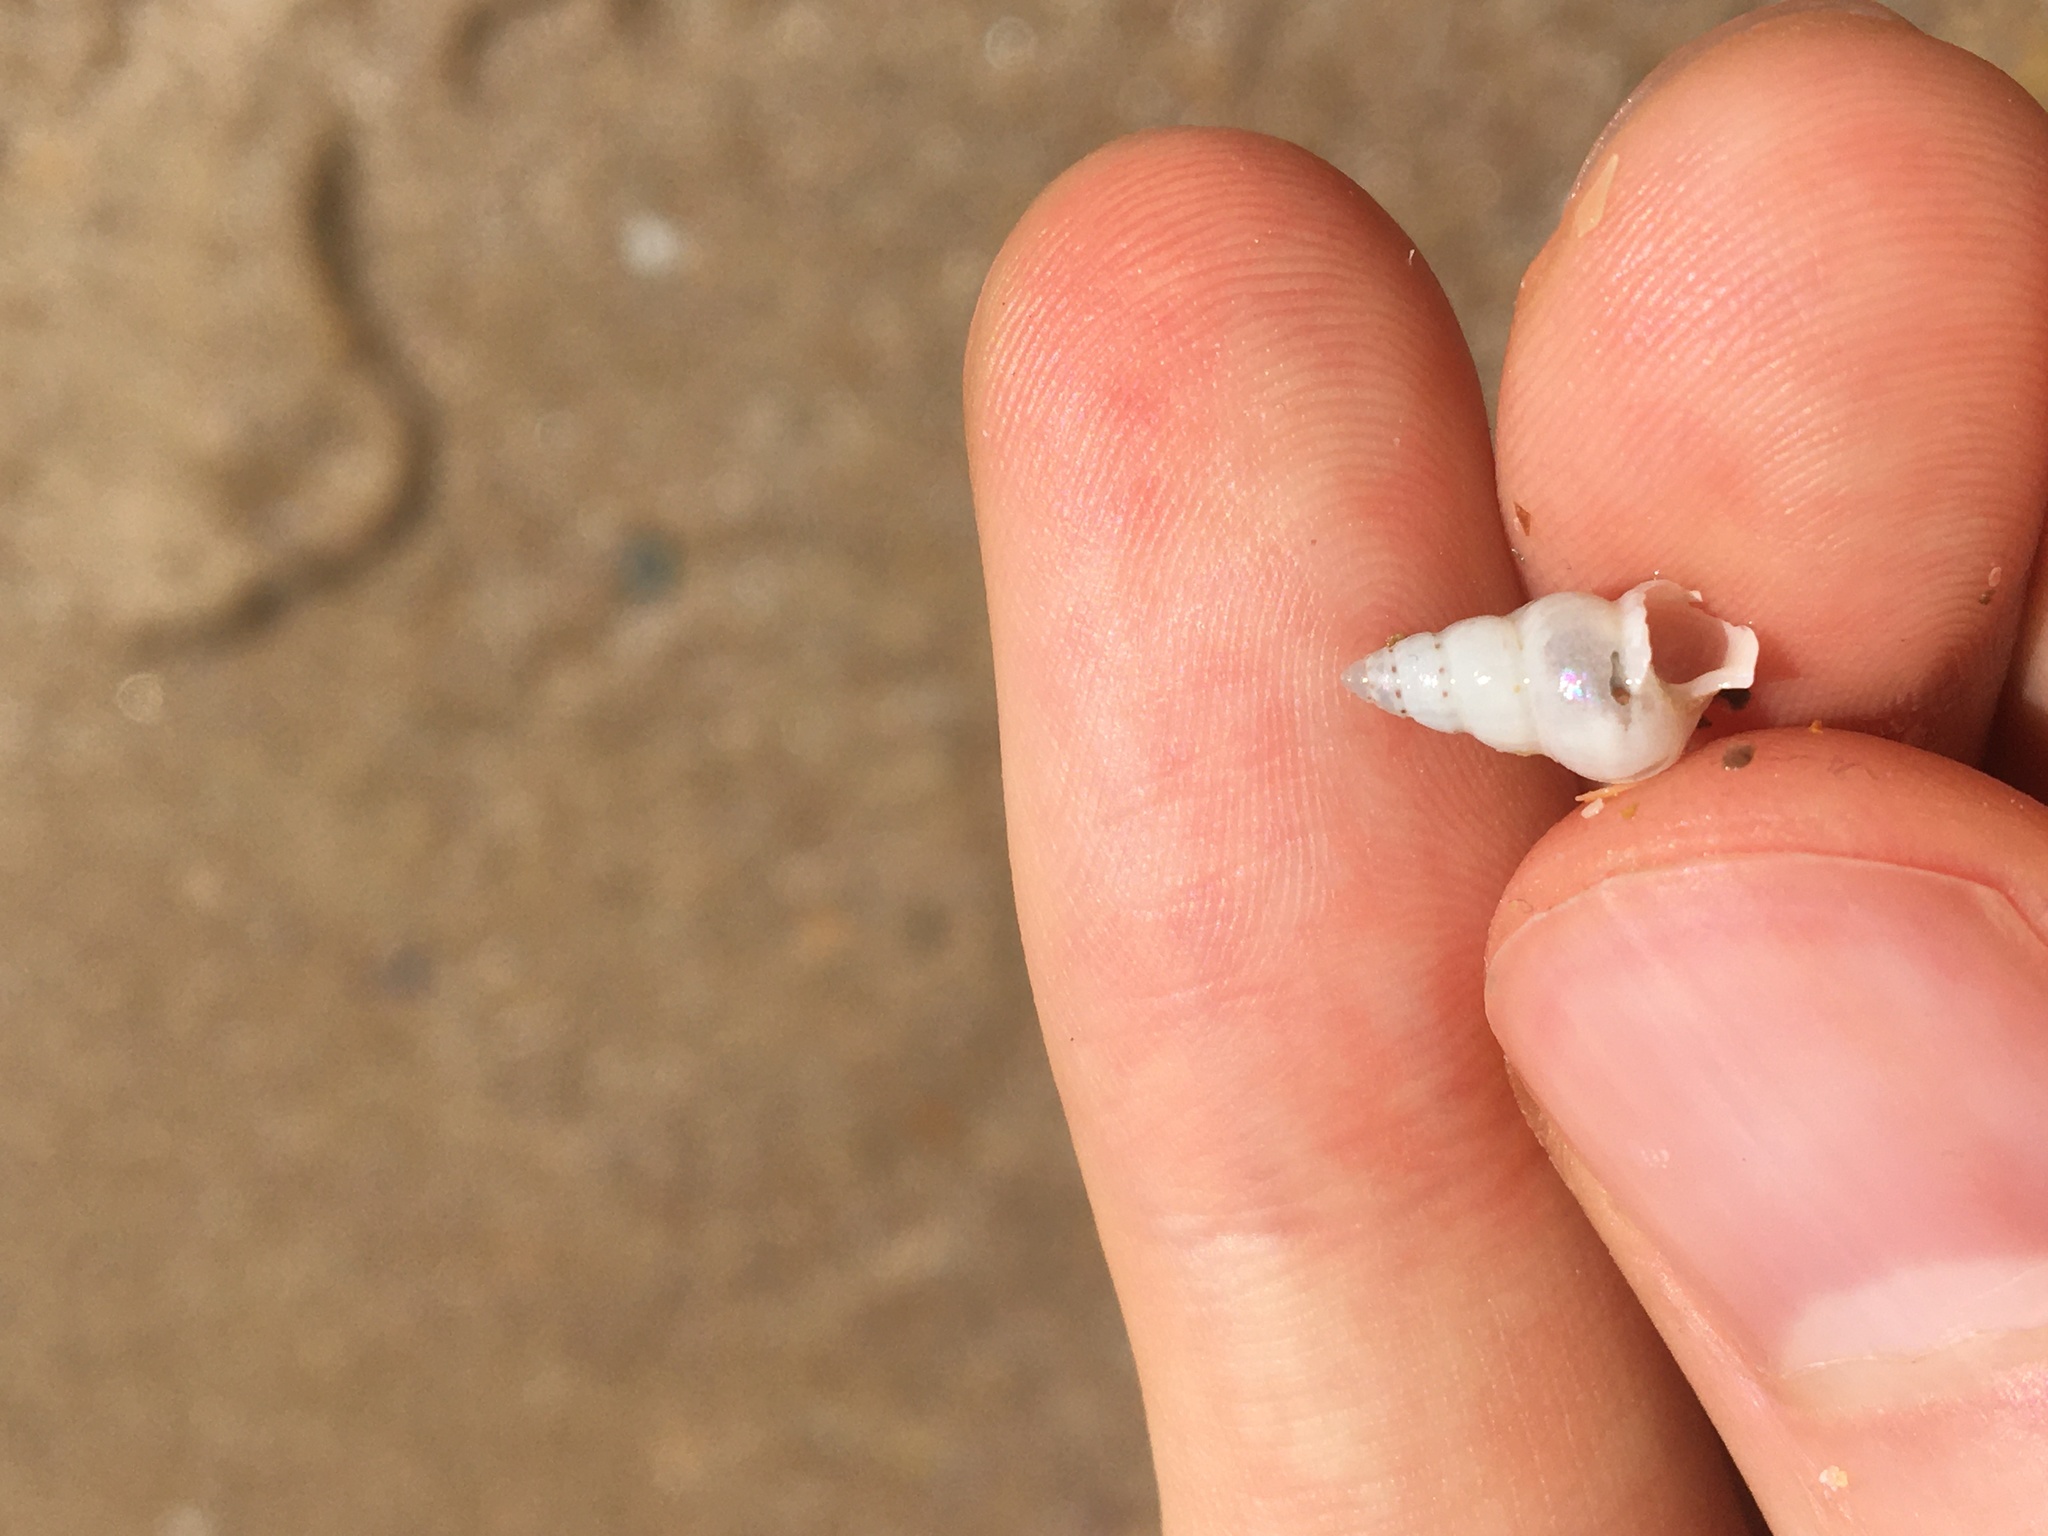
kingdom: Animalia
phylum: Mollusca
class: Gastropoda
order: Trochida
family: Trochidae
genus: Leiopyrga
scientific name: Leiopyrga lineolaris
